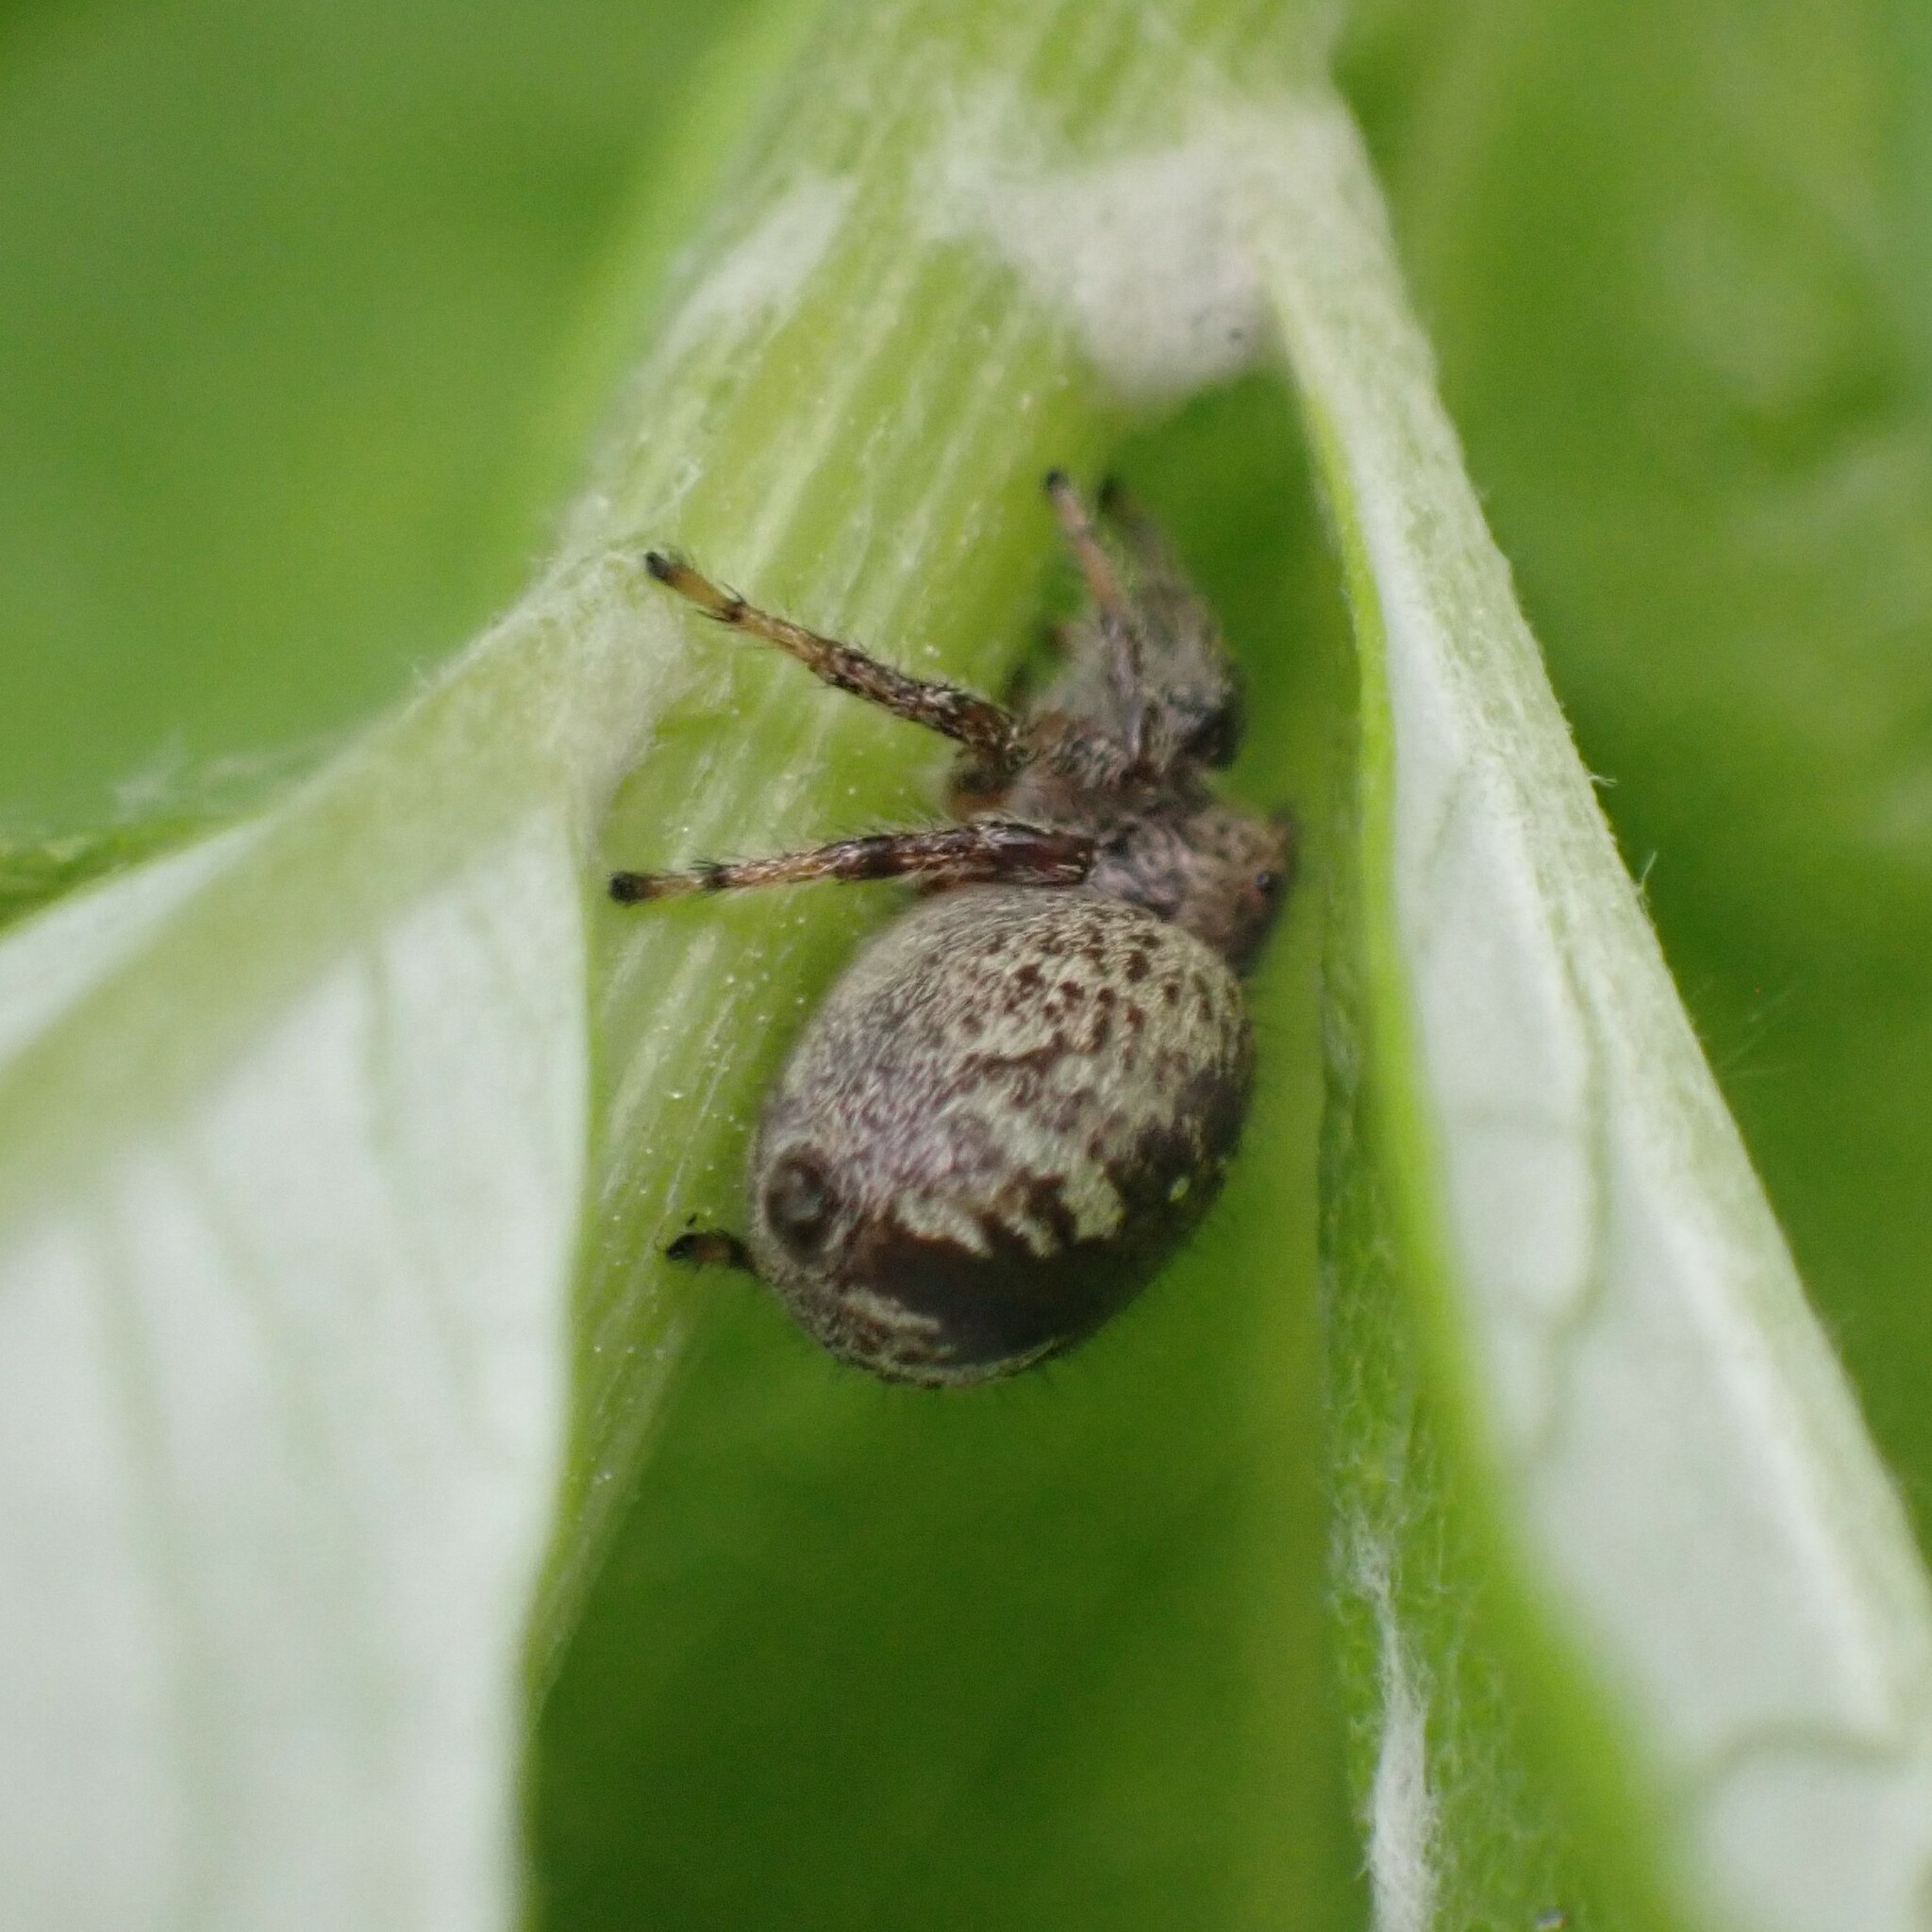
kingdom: Animalia
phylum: Arthropoda
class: Arachnida
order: Araneae
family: Salticidae
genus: Eris
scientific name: Eris militaris
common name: Bronze jumper
